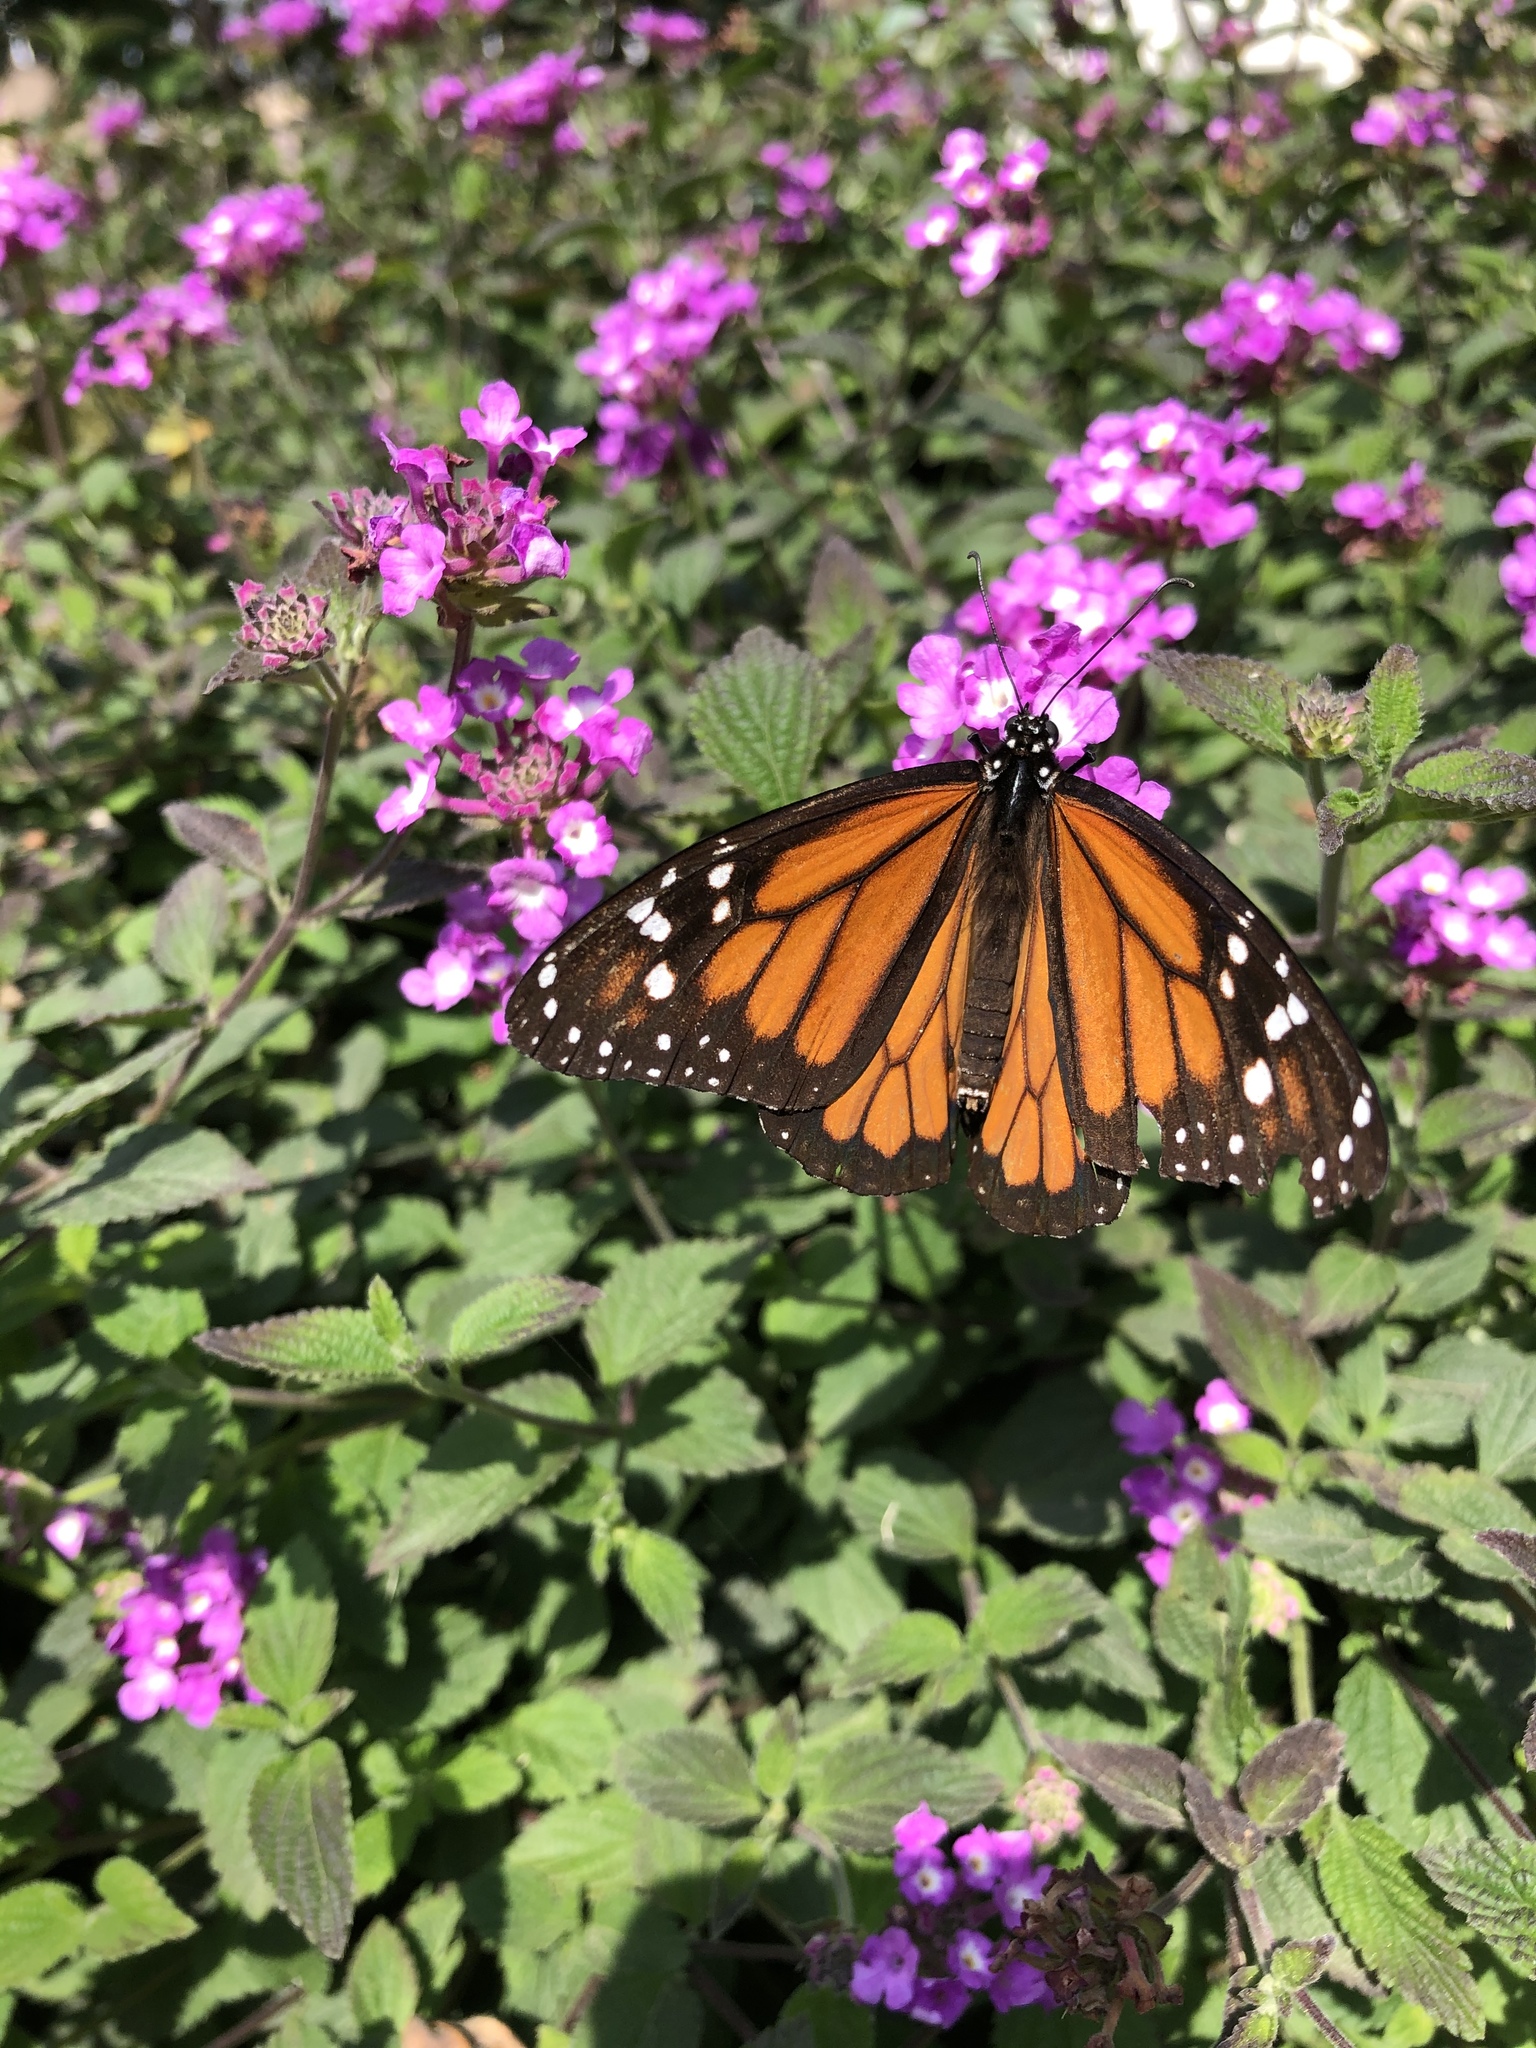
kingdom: Animalia
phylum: Arthropoda
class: Insecta
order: Lepidoptera
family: Nymphalidae
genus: Danaus
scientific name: Danaus plexippus
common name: Monarch
